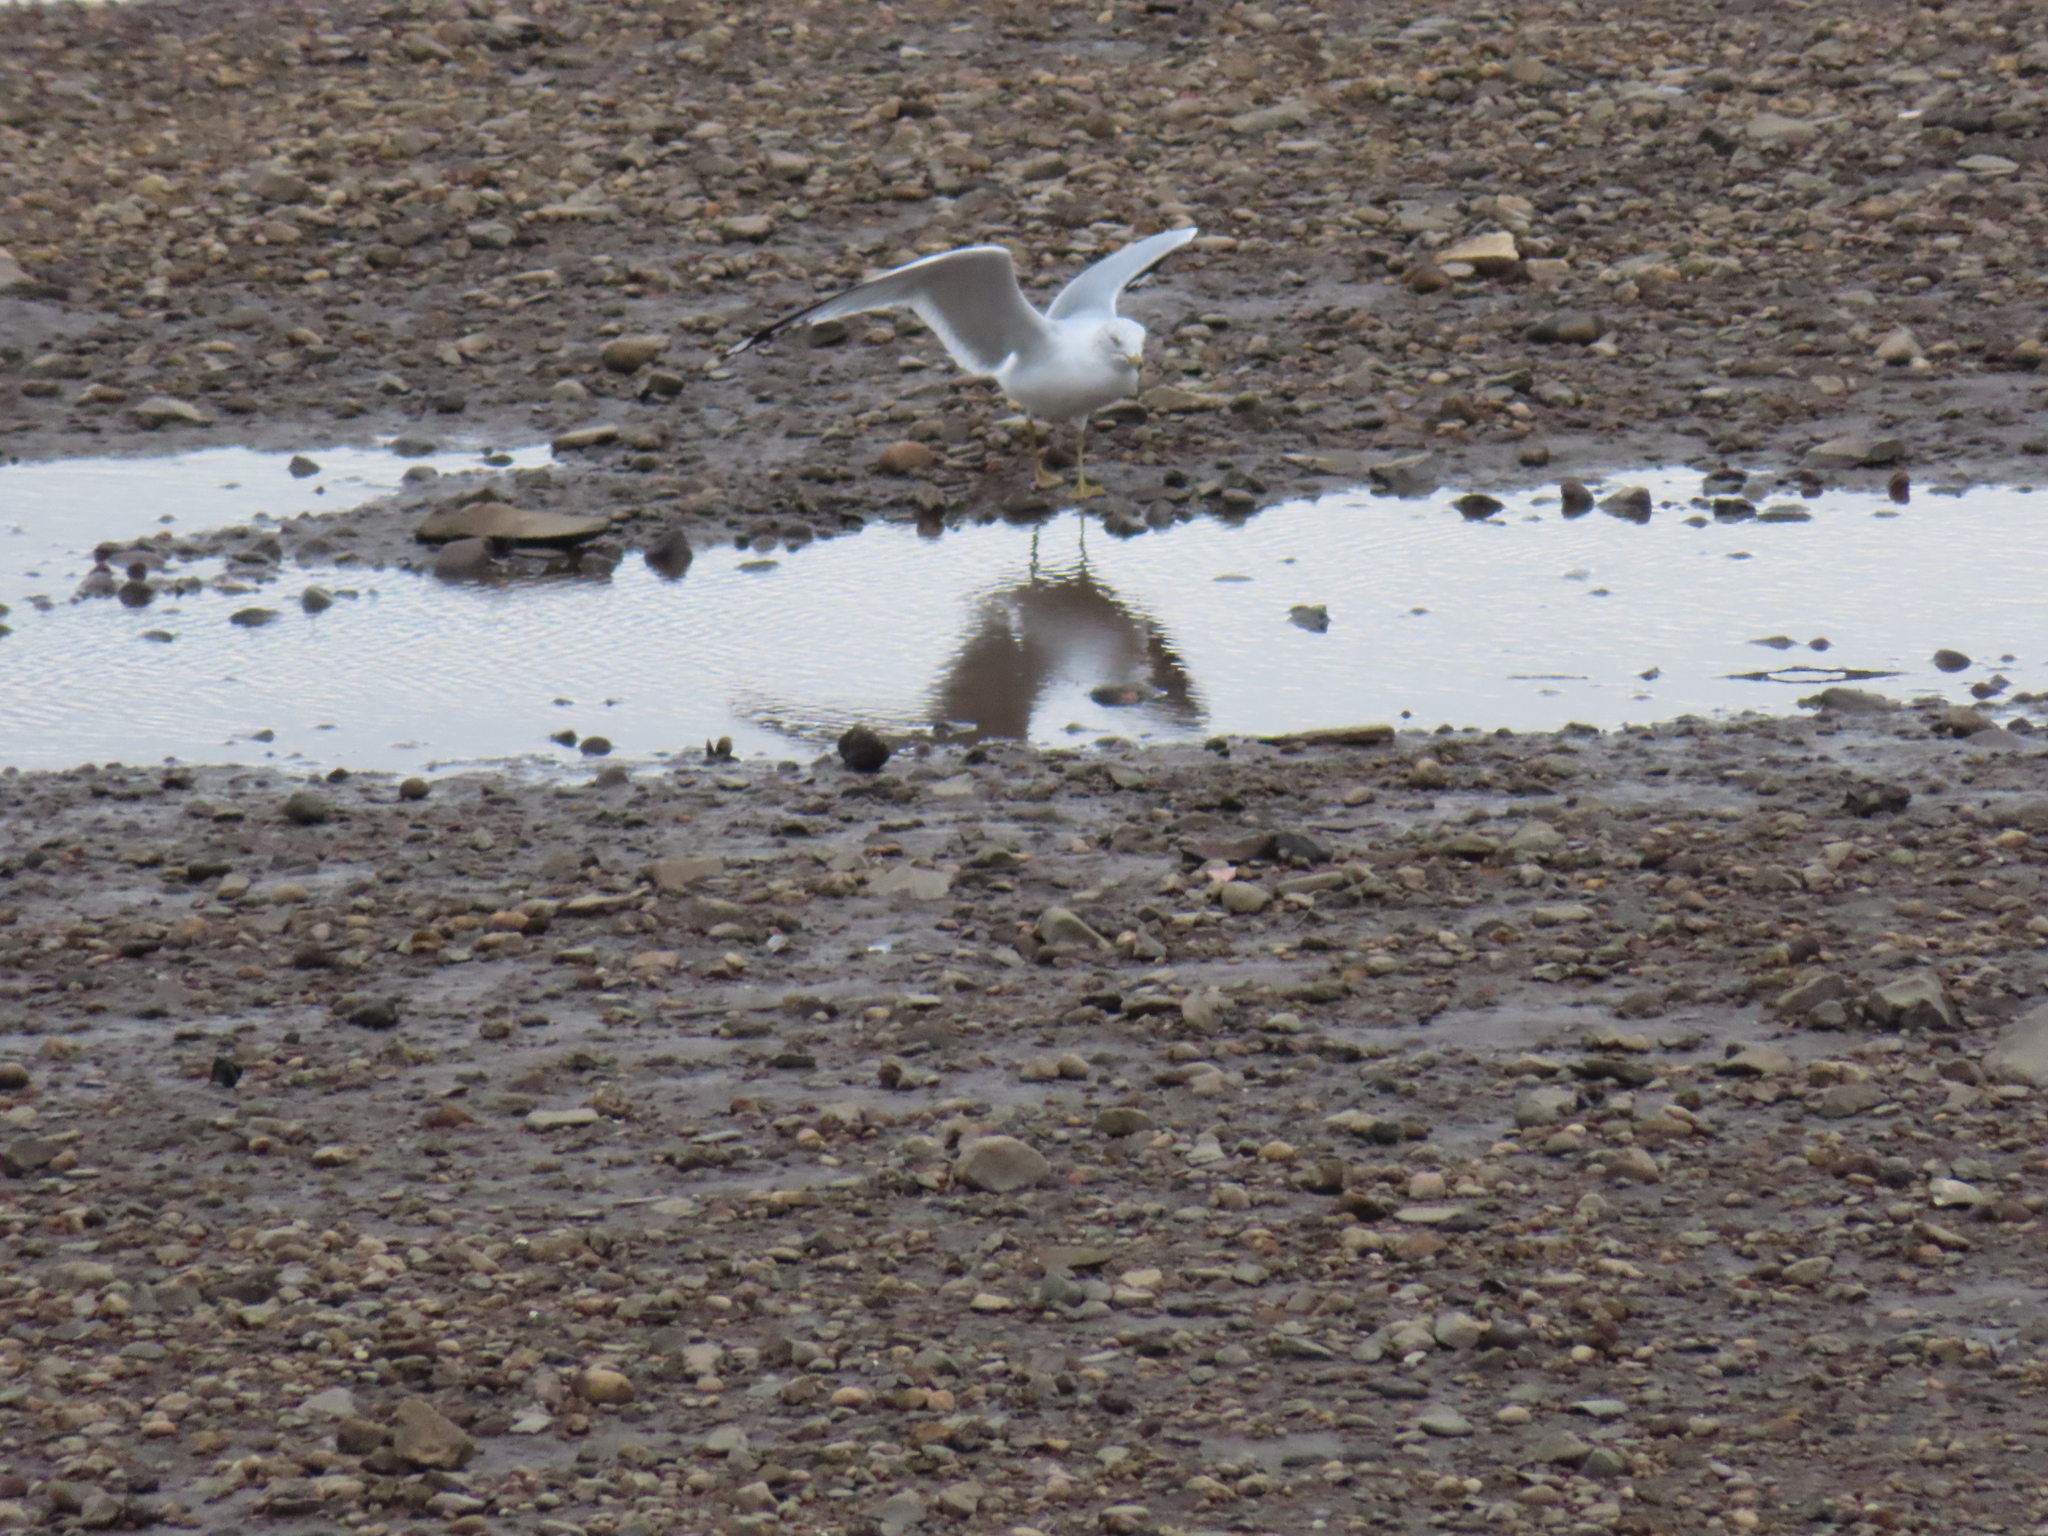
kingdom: Animalia
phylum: Chordata
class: Aves
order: Charadriiformes
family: Laridae
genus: Larus
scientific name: Larus delawarensis
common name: Ring-billed gull
